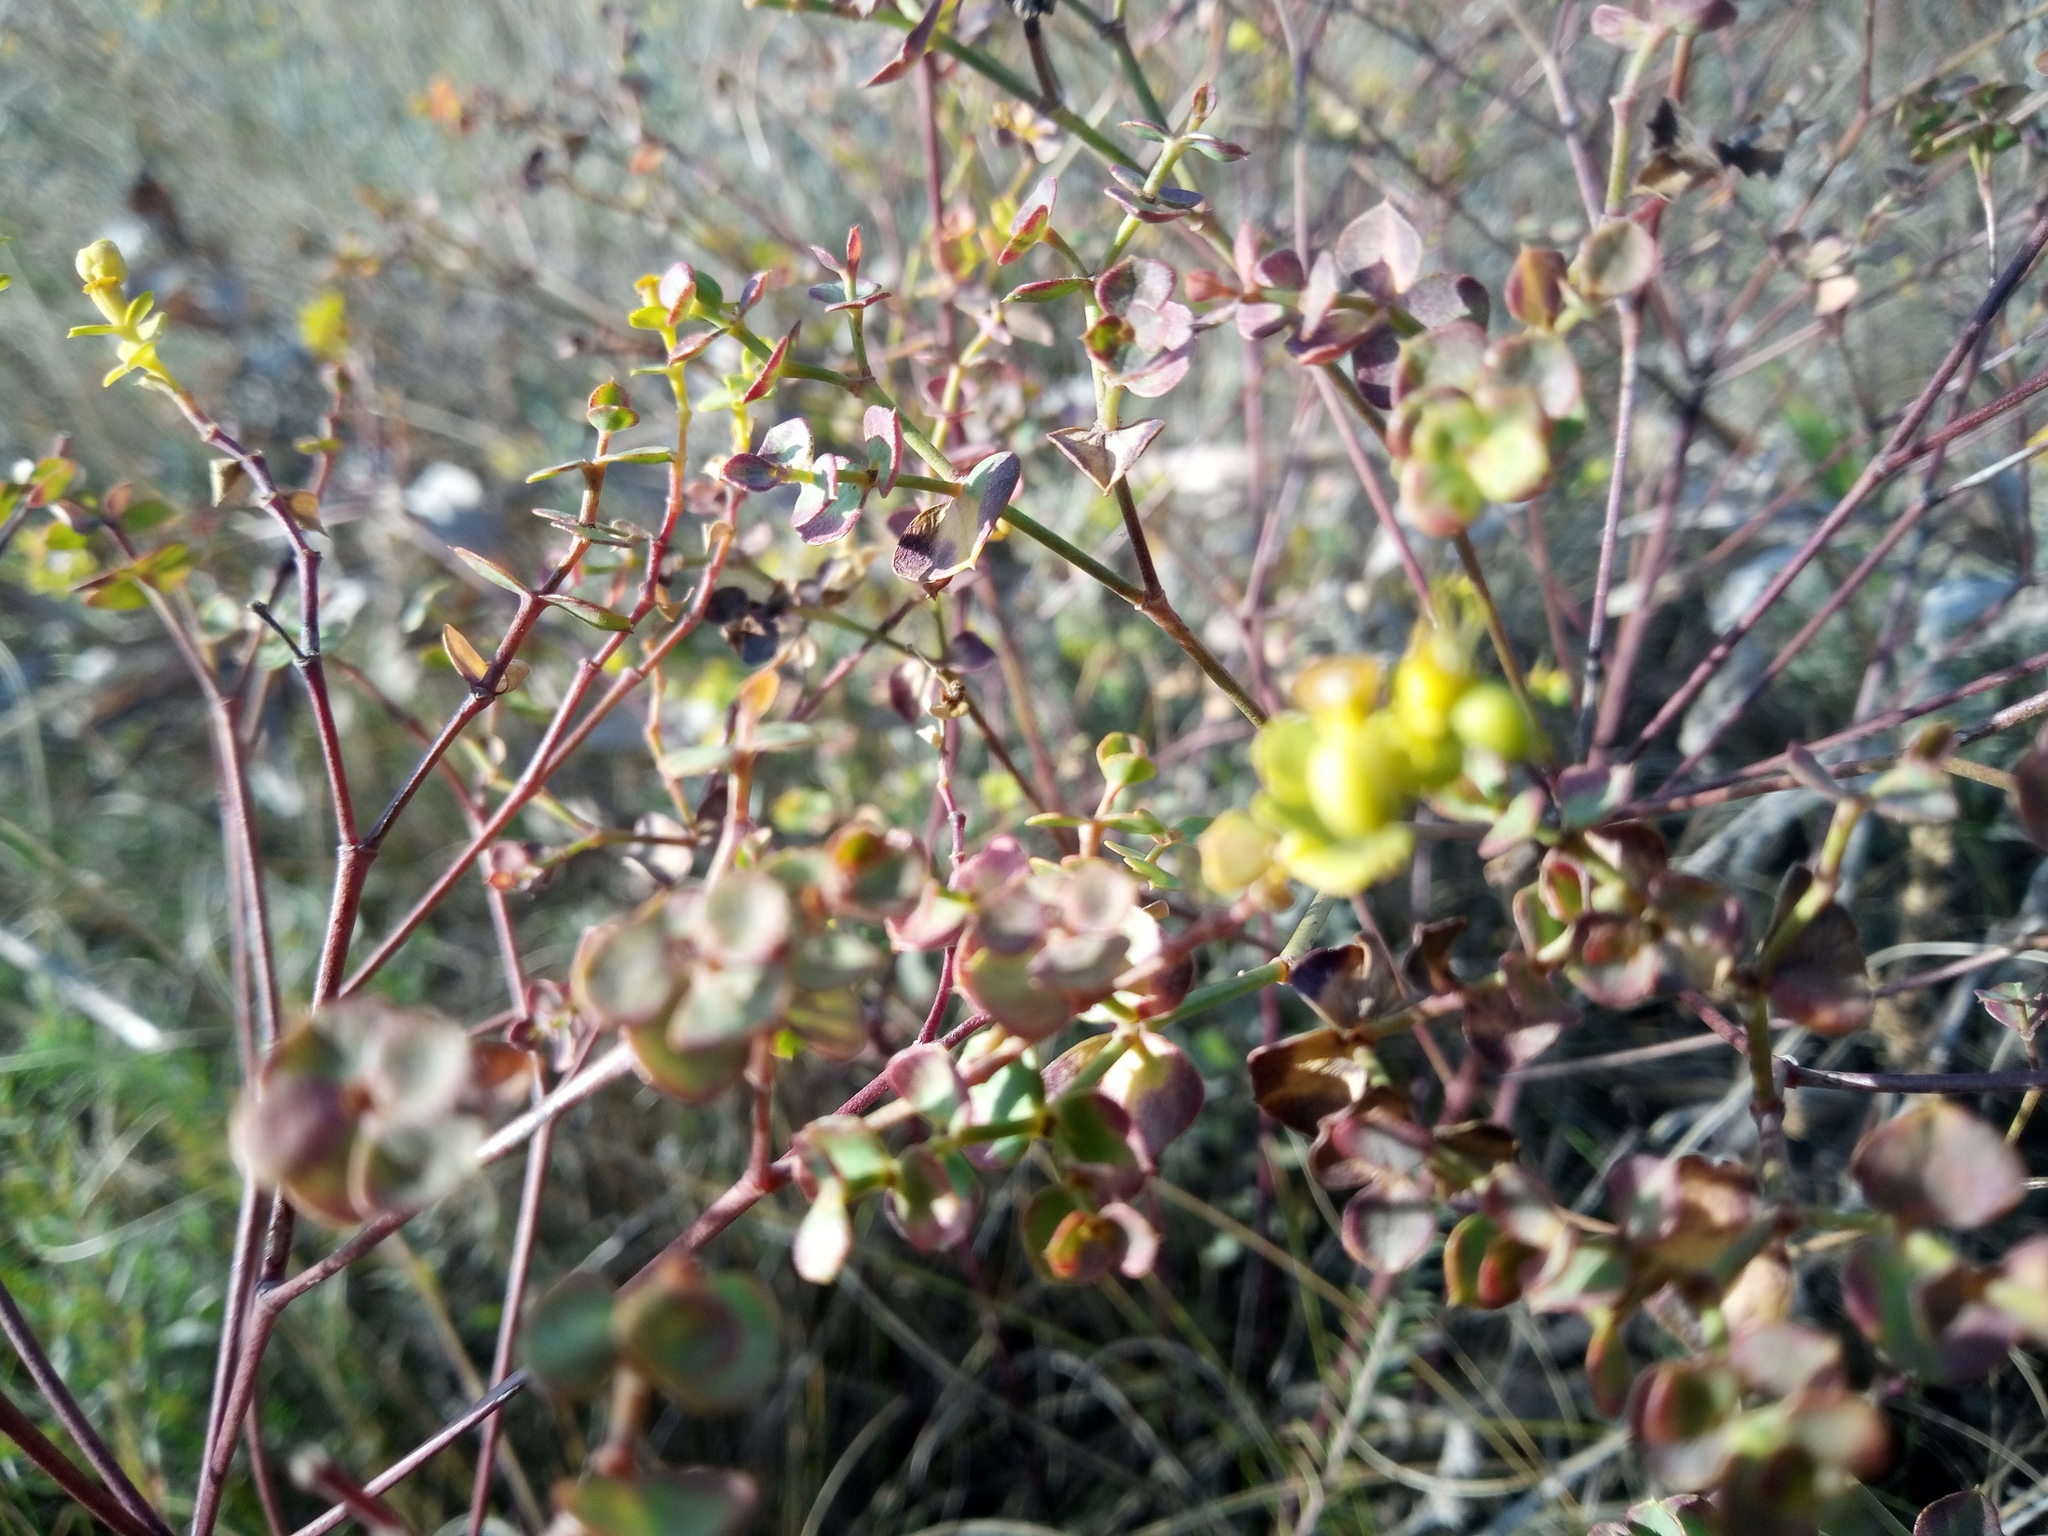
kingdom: Plantae
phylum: Tracheophyta
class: Magnoliopsida
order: Malpighiales
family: Euphorbiaceae
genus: Euphorbia
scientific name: Euphorbia seguieriana
